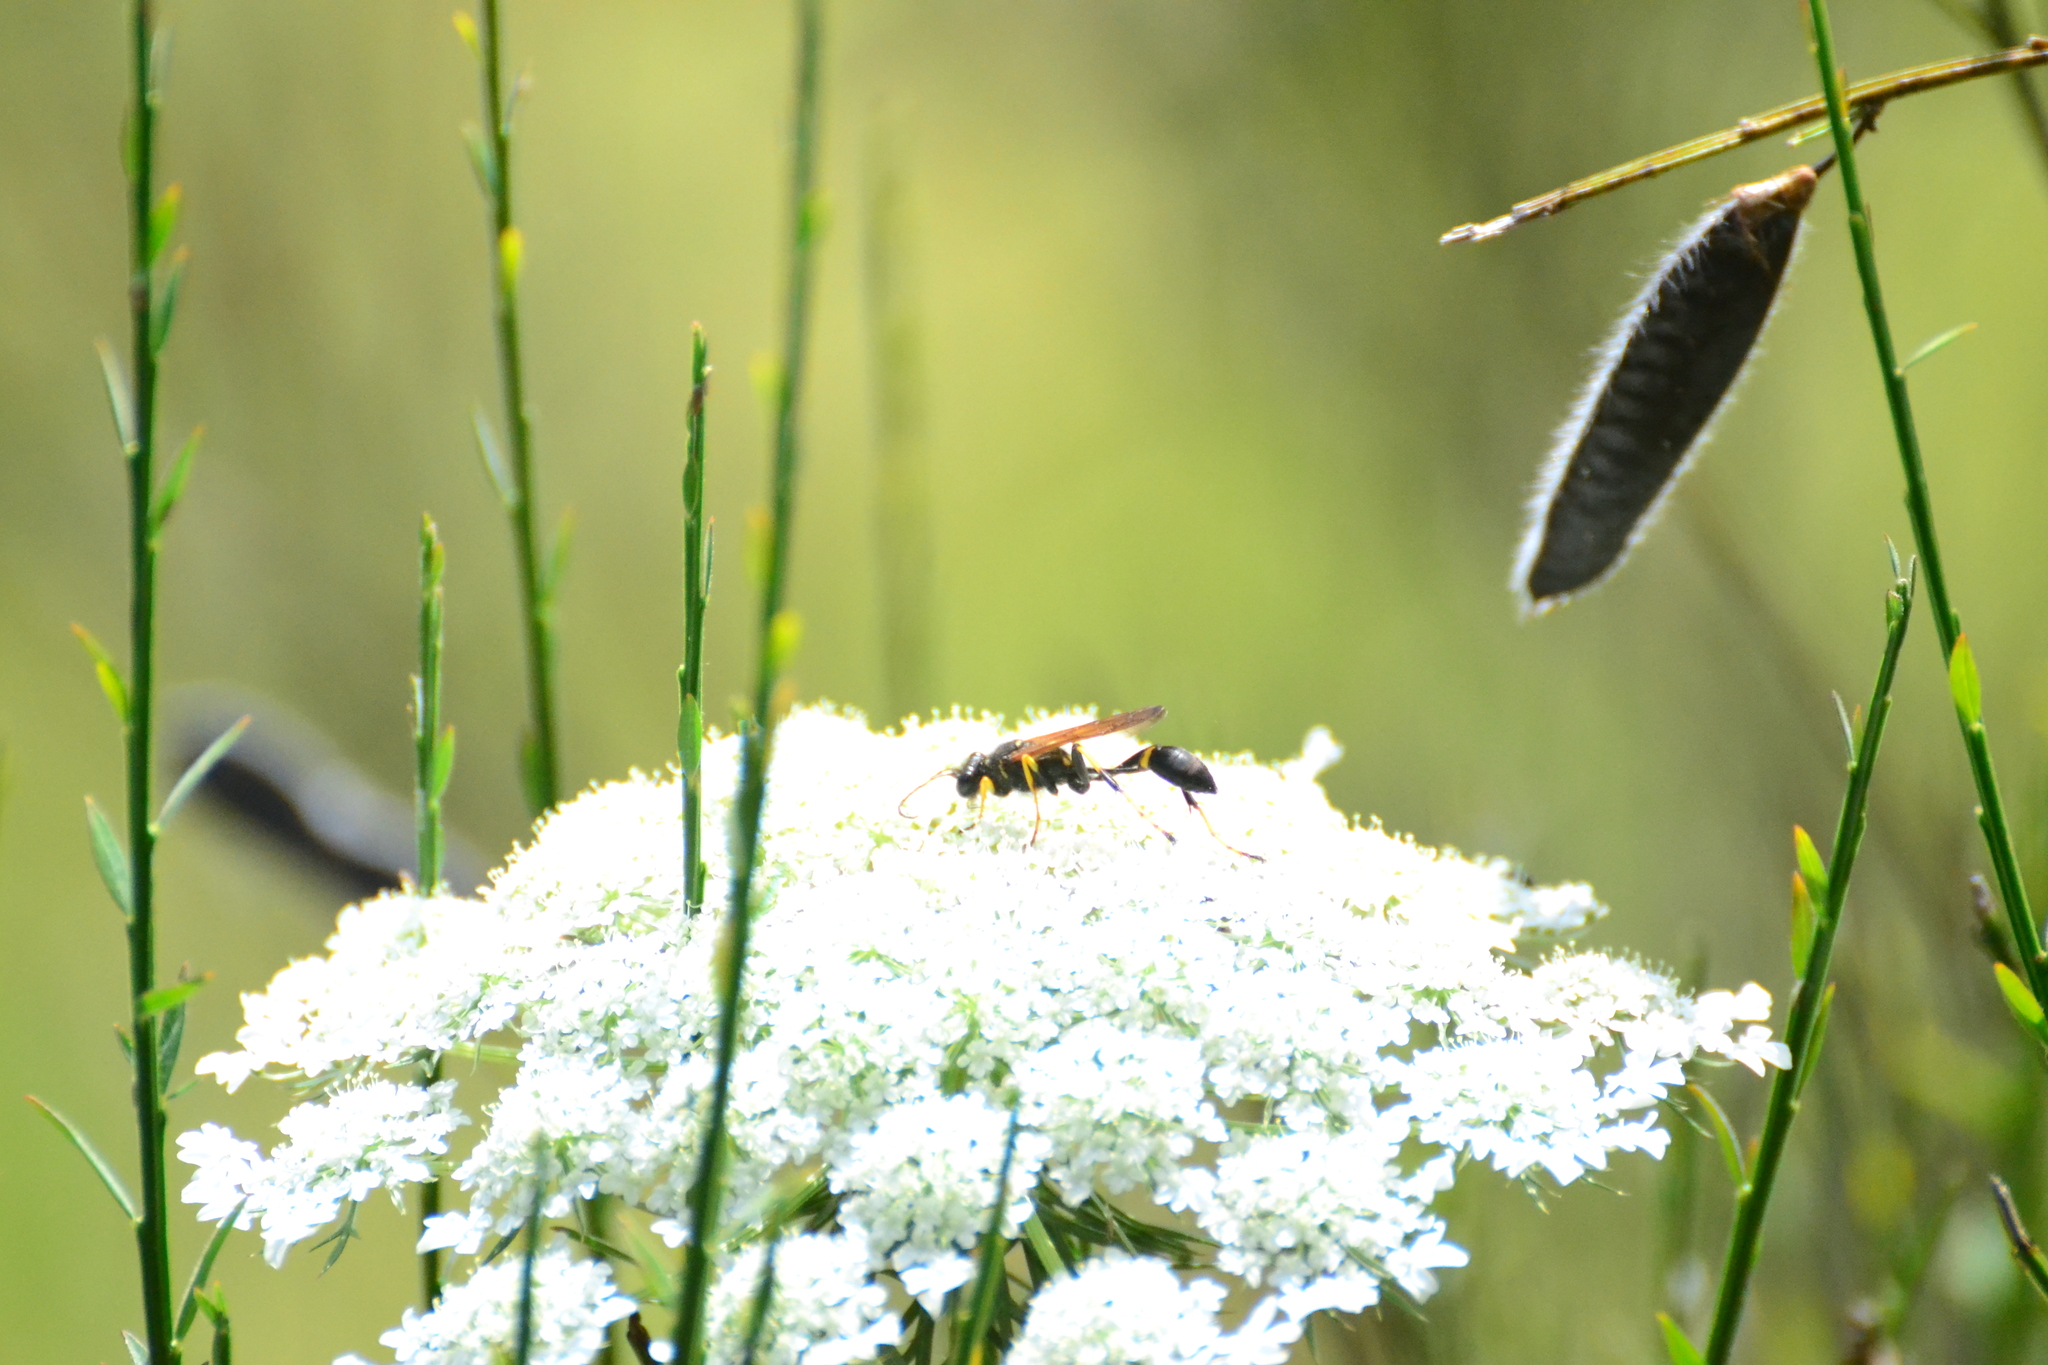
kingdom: Animalia
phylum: Arthropoda
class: Insecta
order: Hymenoptera
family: Sphecidae
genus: Sceliphron
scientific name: Sceliphron caementarium
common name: Mud dauber
